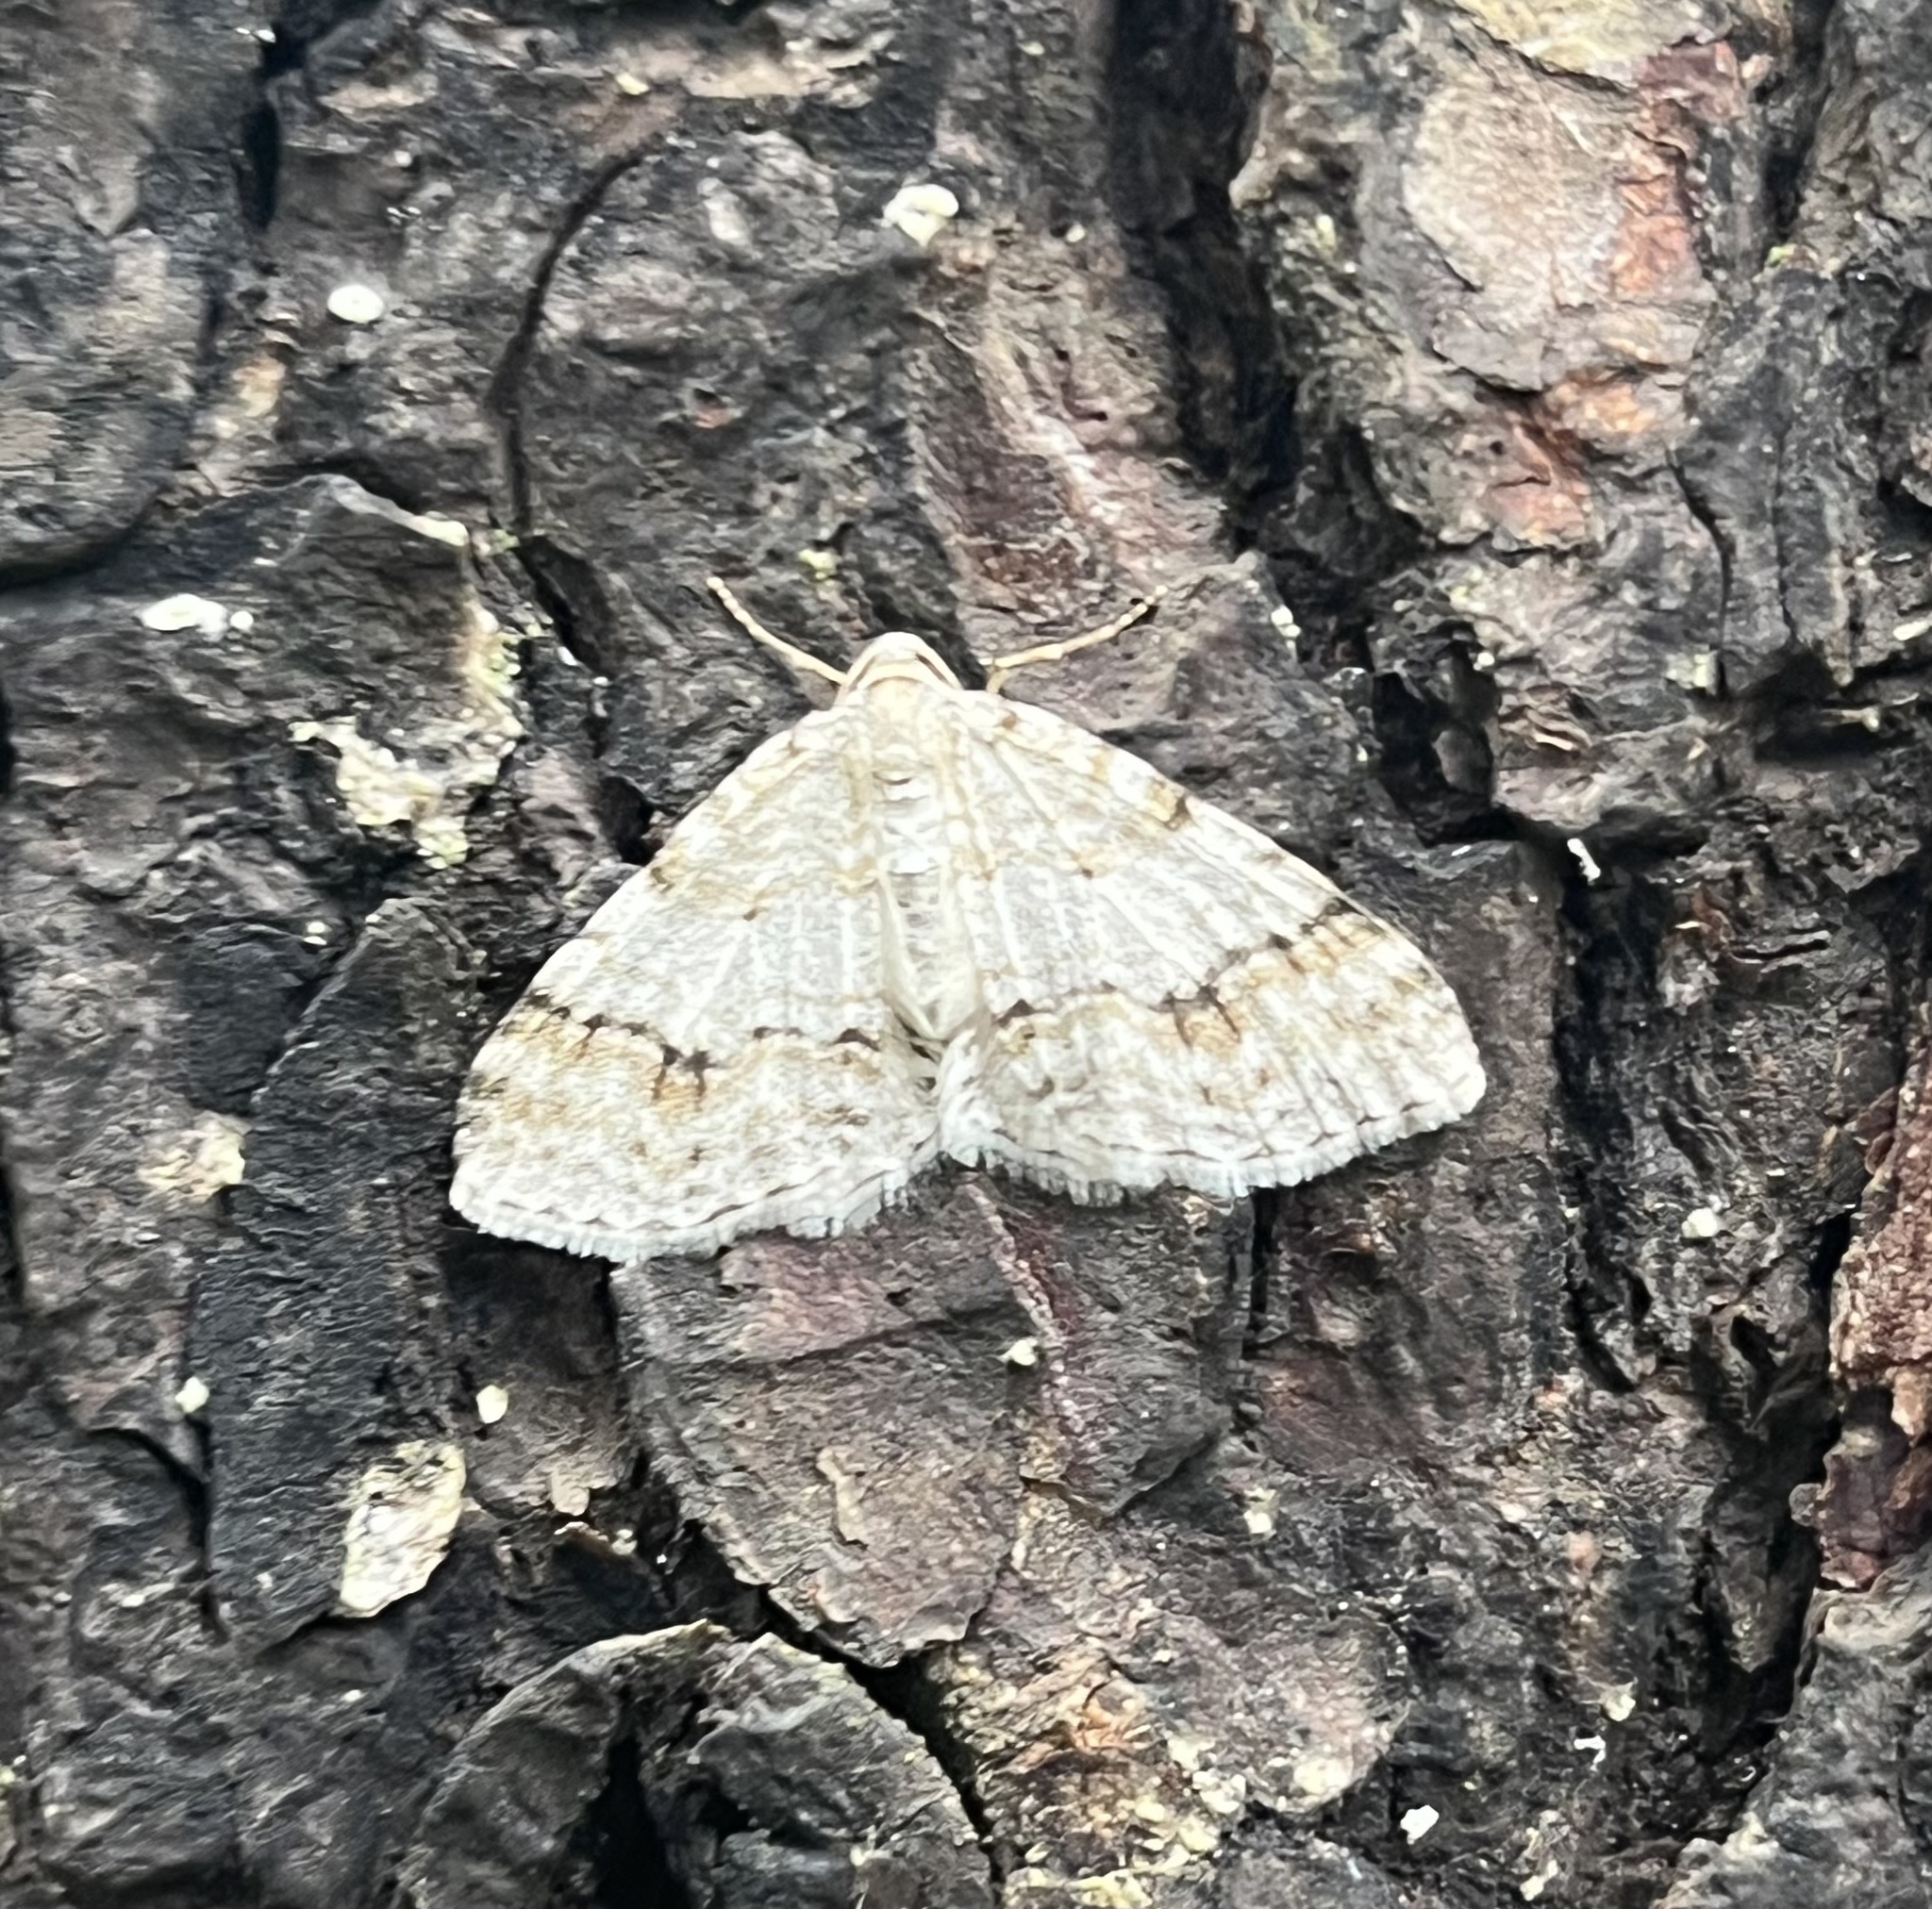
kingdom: Animalia
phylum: Arthropoda
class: Insecta
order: Lepidoptera
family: Geometridae
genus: Venusia
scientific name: Venusia cambrica
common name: Welsh wave
